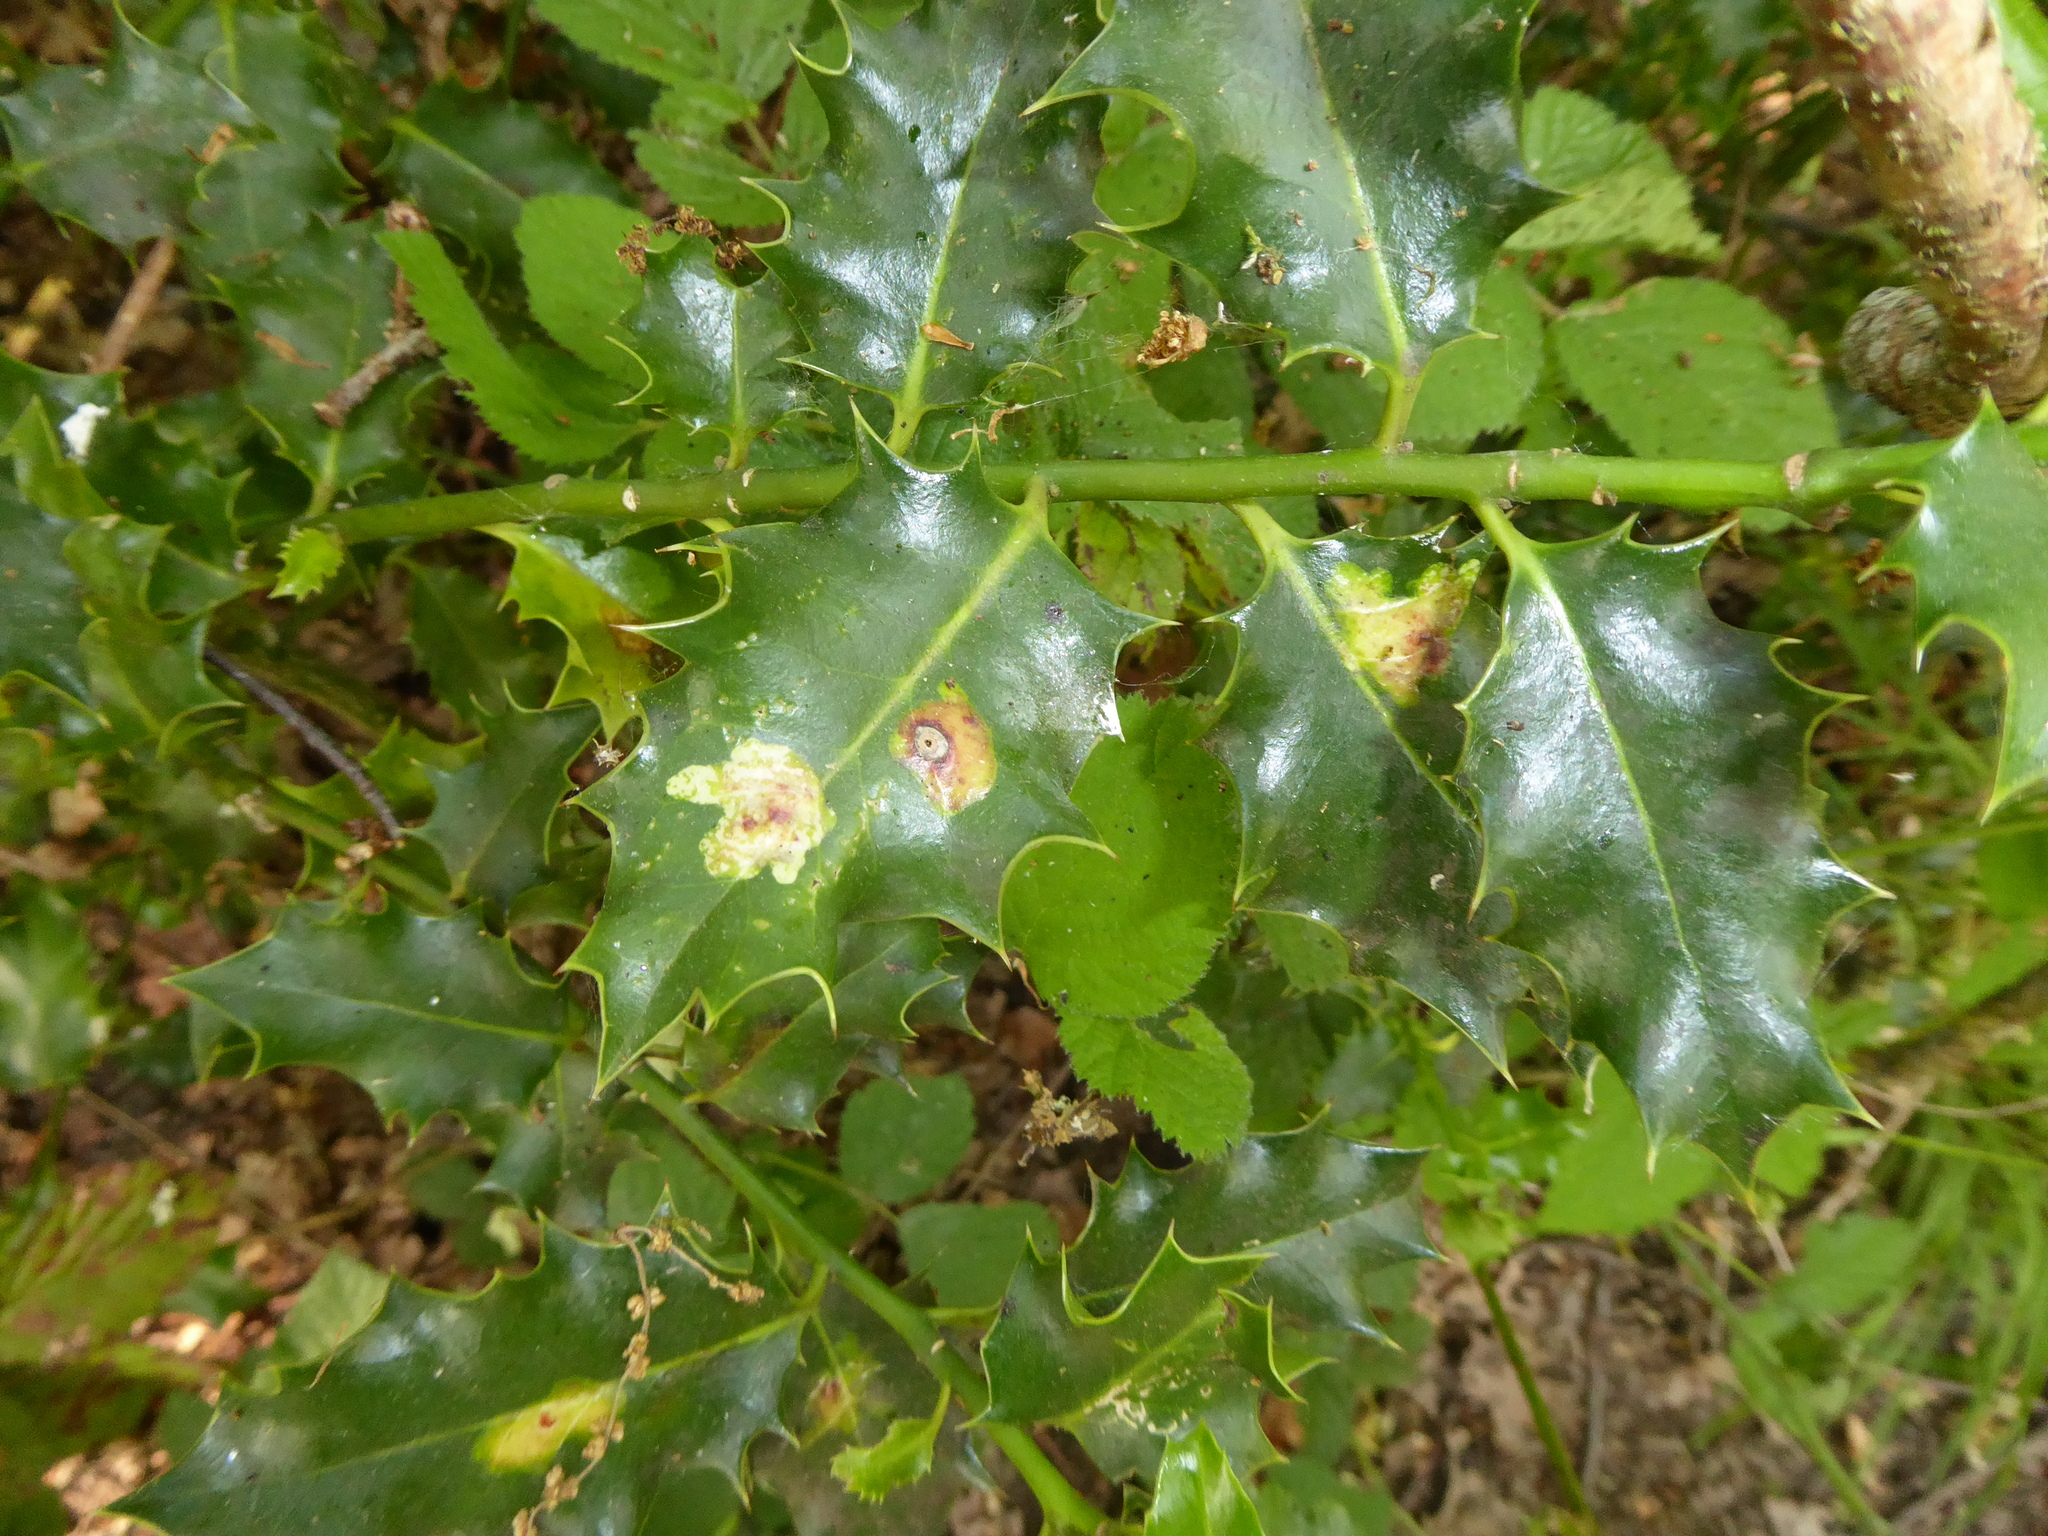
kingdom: Animalia
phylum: Arthropoda
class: Insecta
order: Diptera
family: Agromyzidae
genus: Phytomyza
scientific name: Phytomyza ilicis
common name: Holly leafminer
